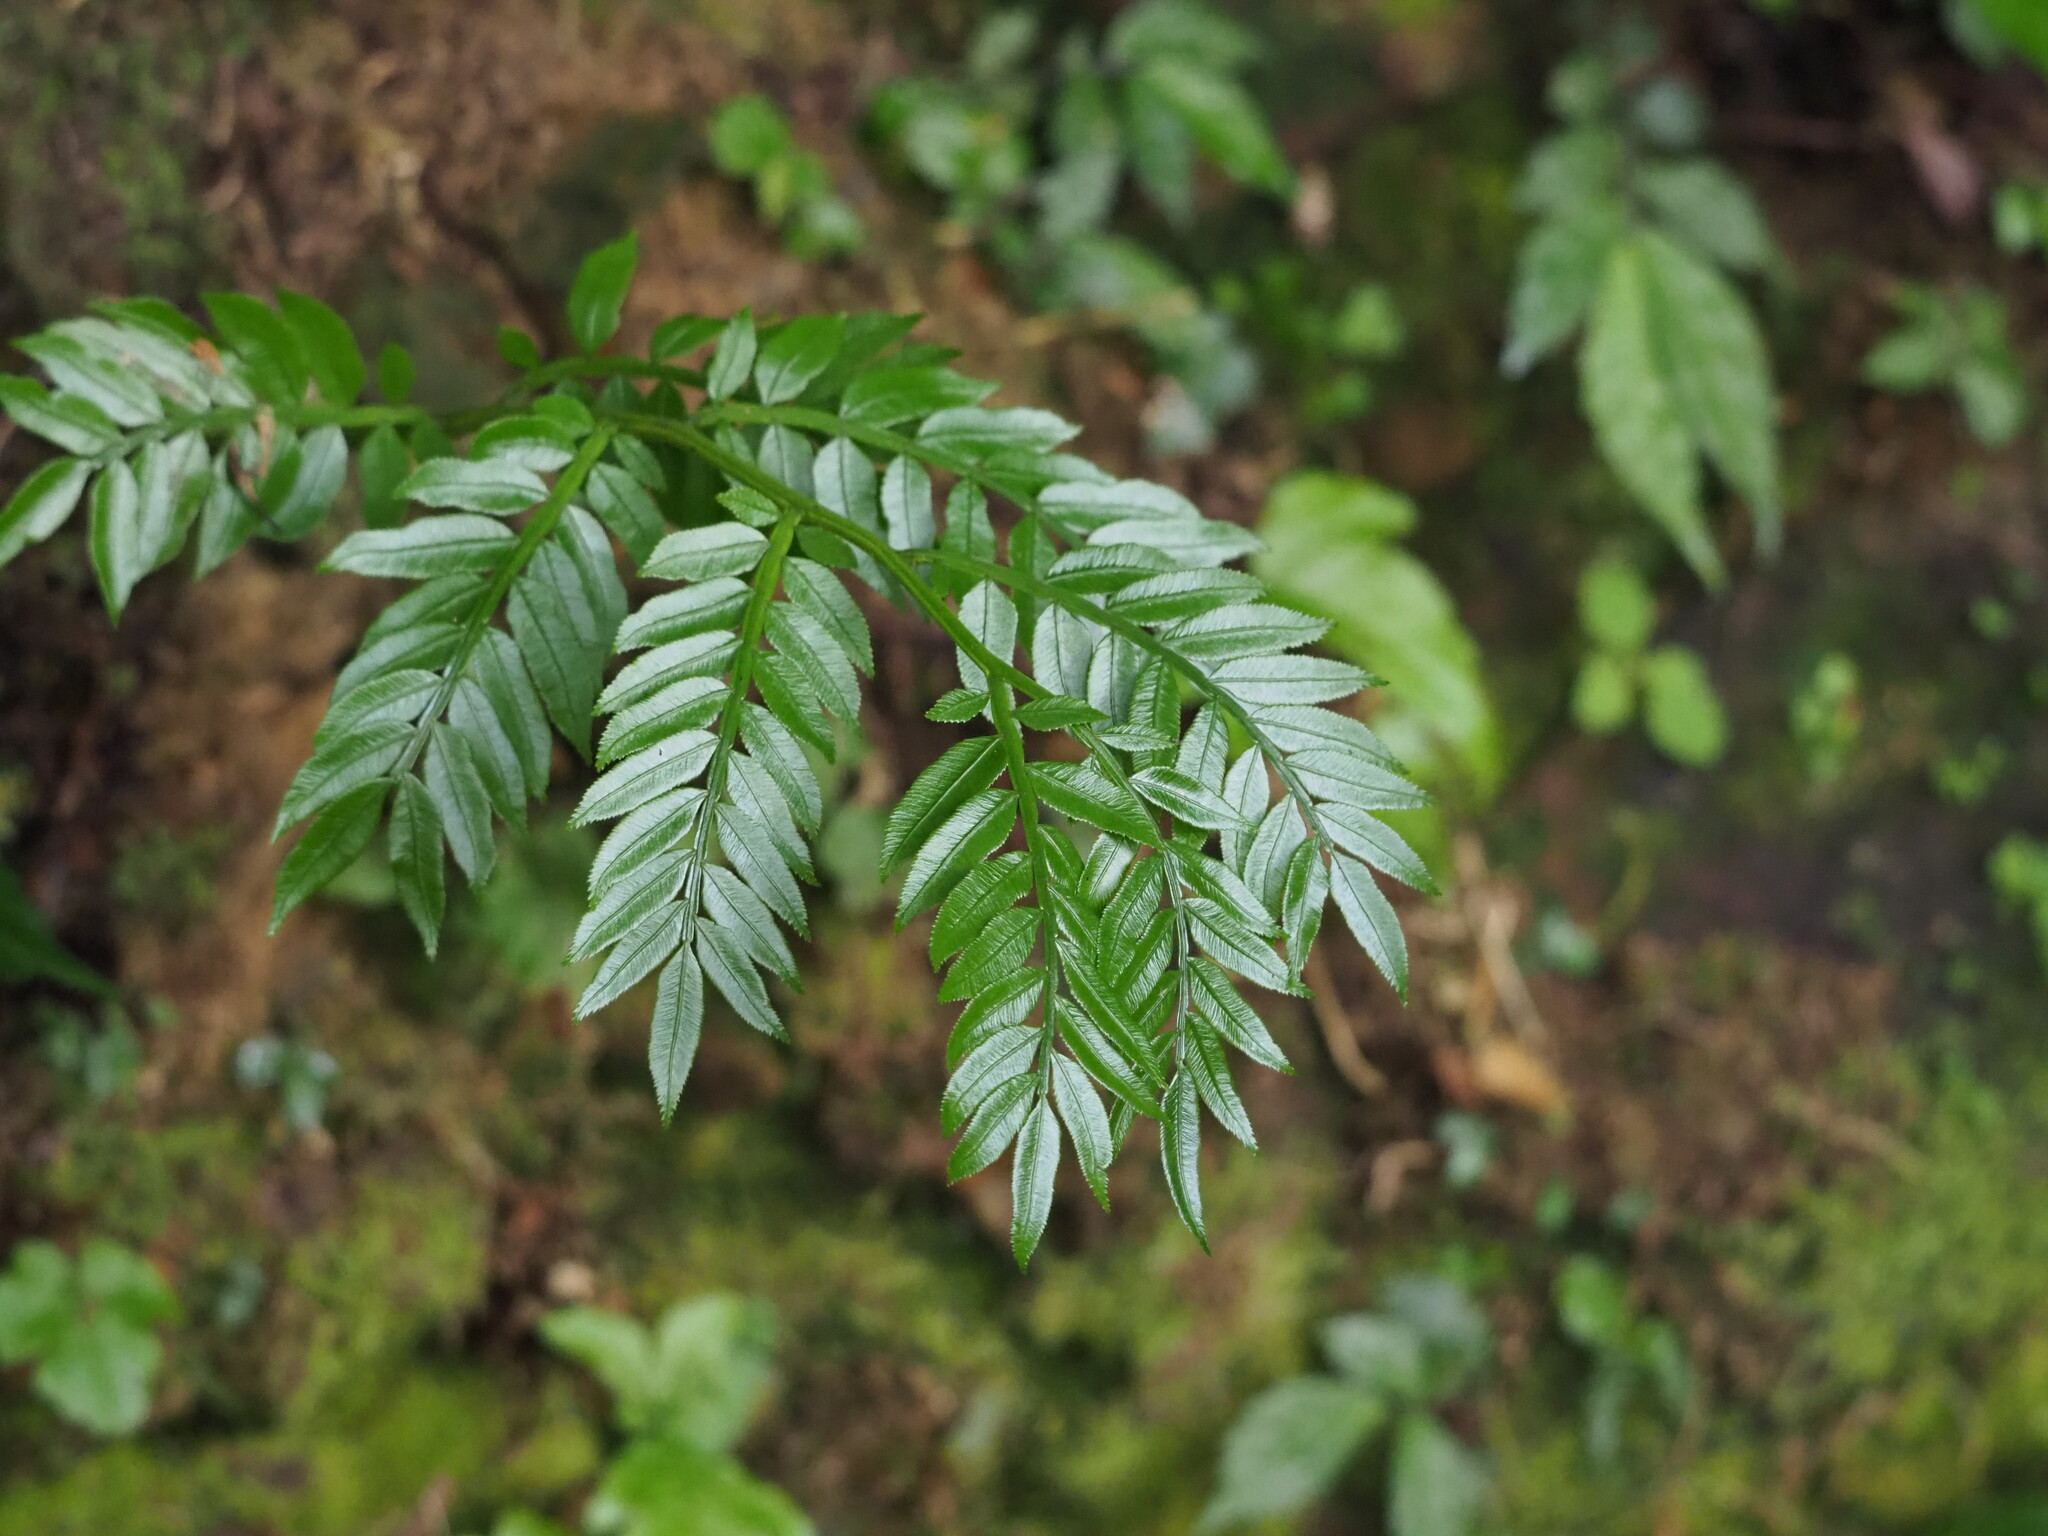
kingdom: Plantae
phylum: Tracheophyta
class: Polypodiopsida
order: Marattiales
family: Marattiaceae
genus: Angiopteris
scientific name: Angiopteris lygodiifolia
